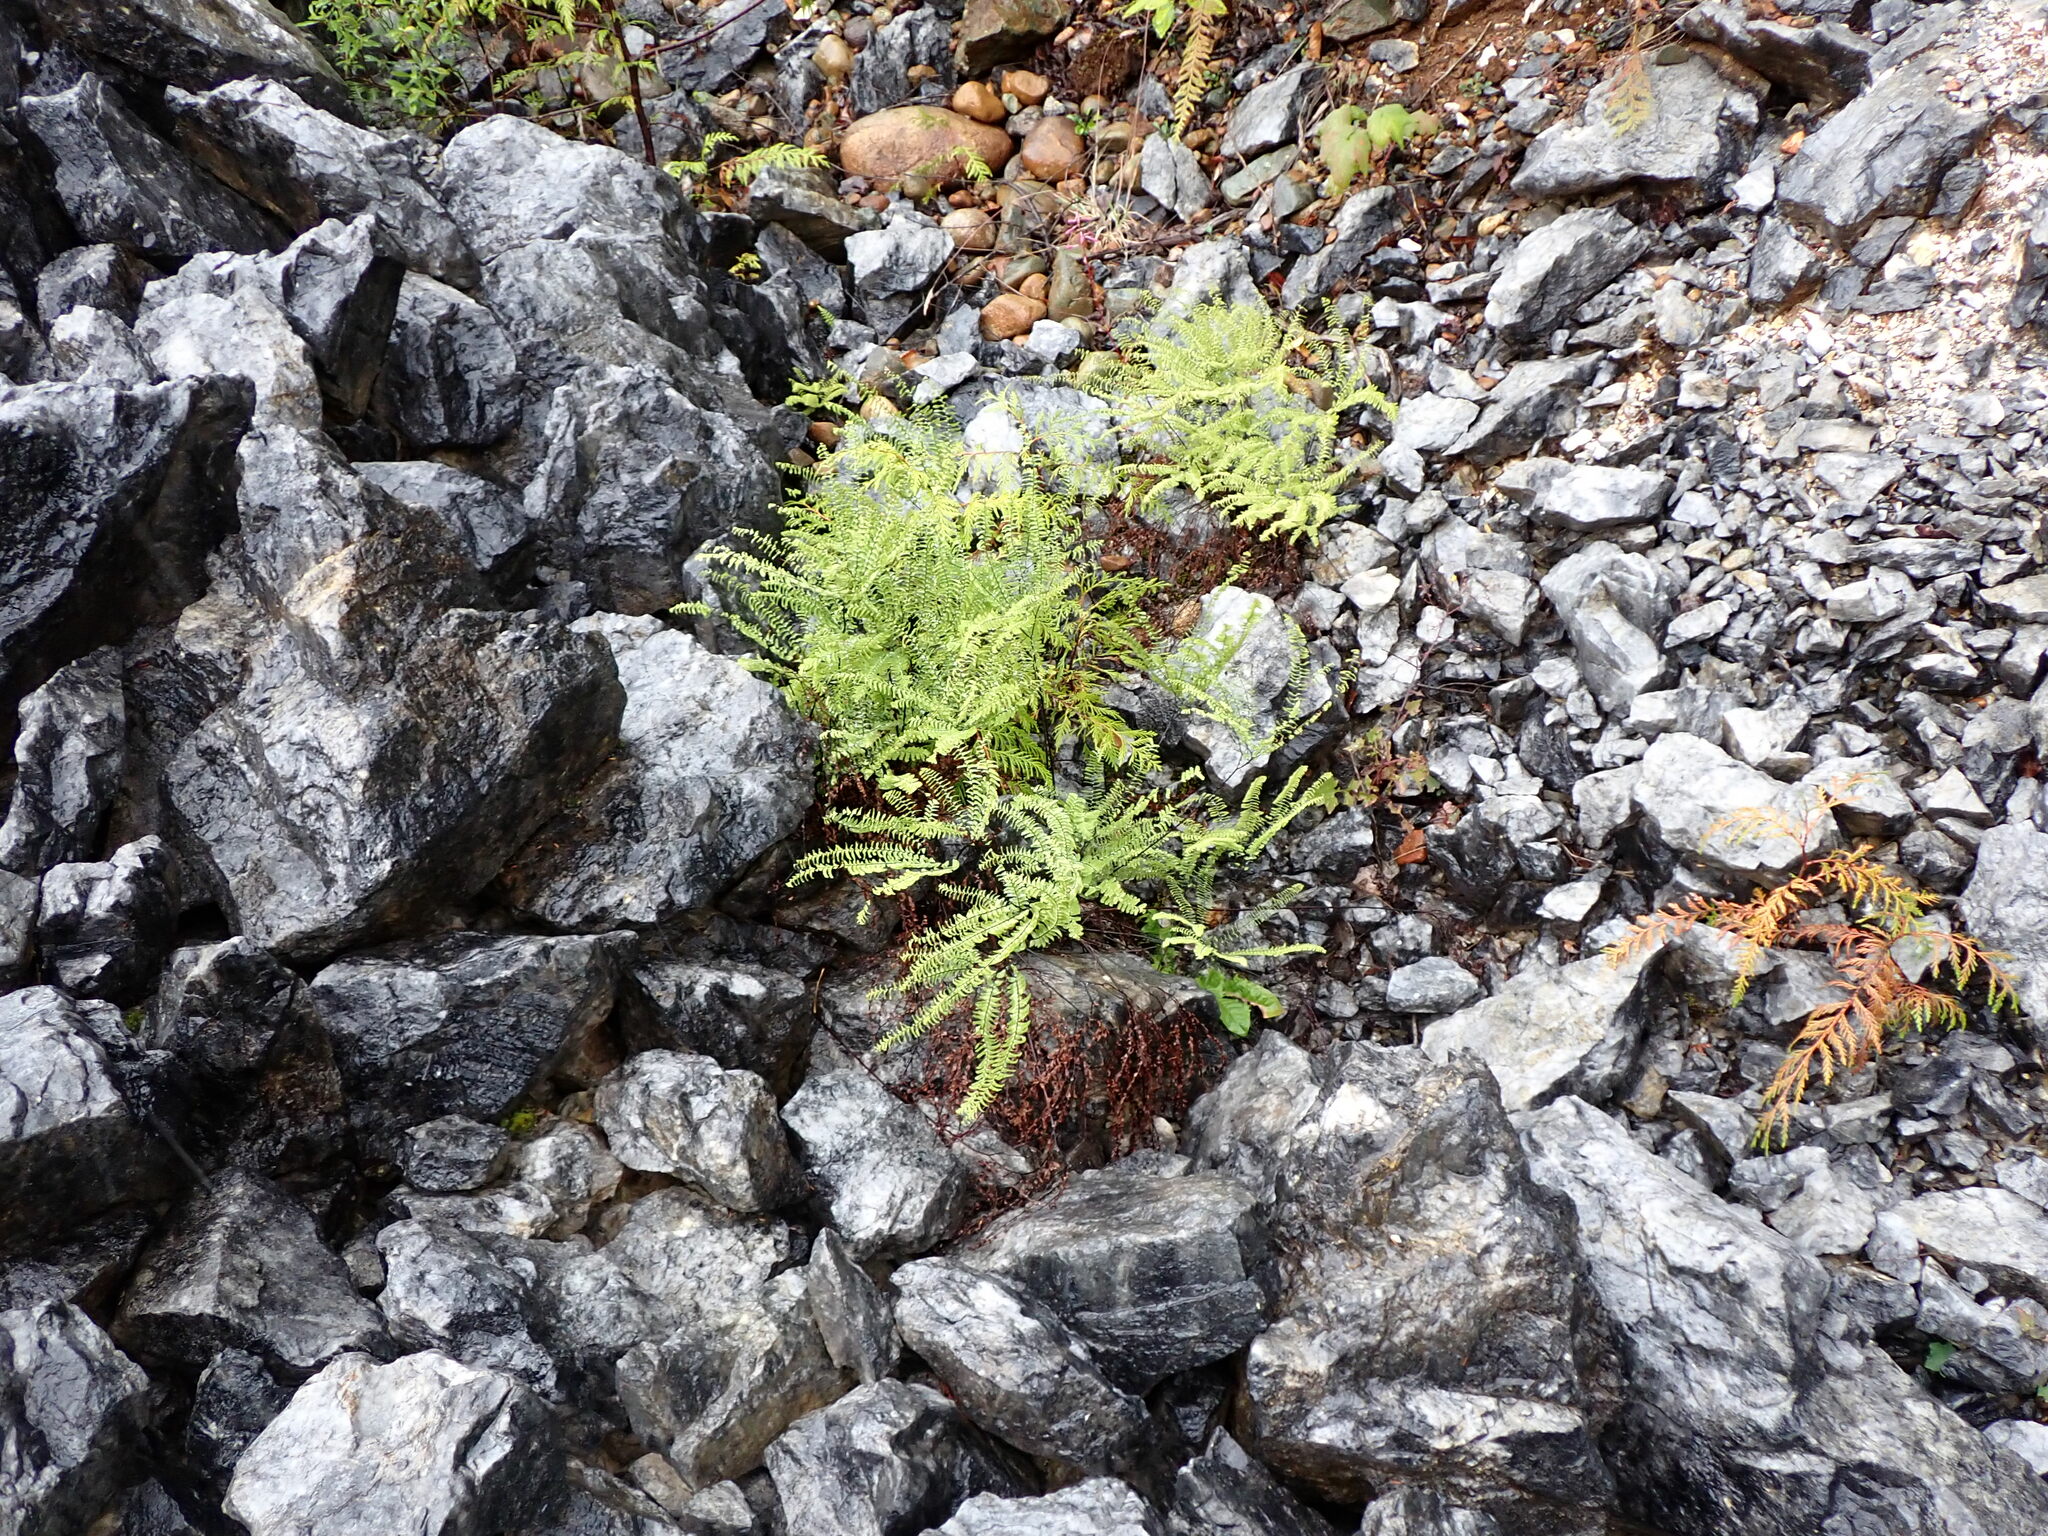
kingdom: Plantae
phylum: Tracheophyta
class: Polypodiopsida
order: Polypodiales
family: Pteridaceae
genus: Adiantum
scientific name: Adiantum aleuticum
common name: Aleutian maidenhair fern
